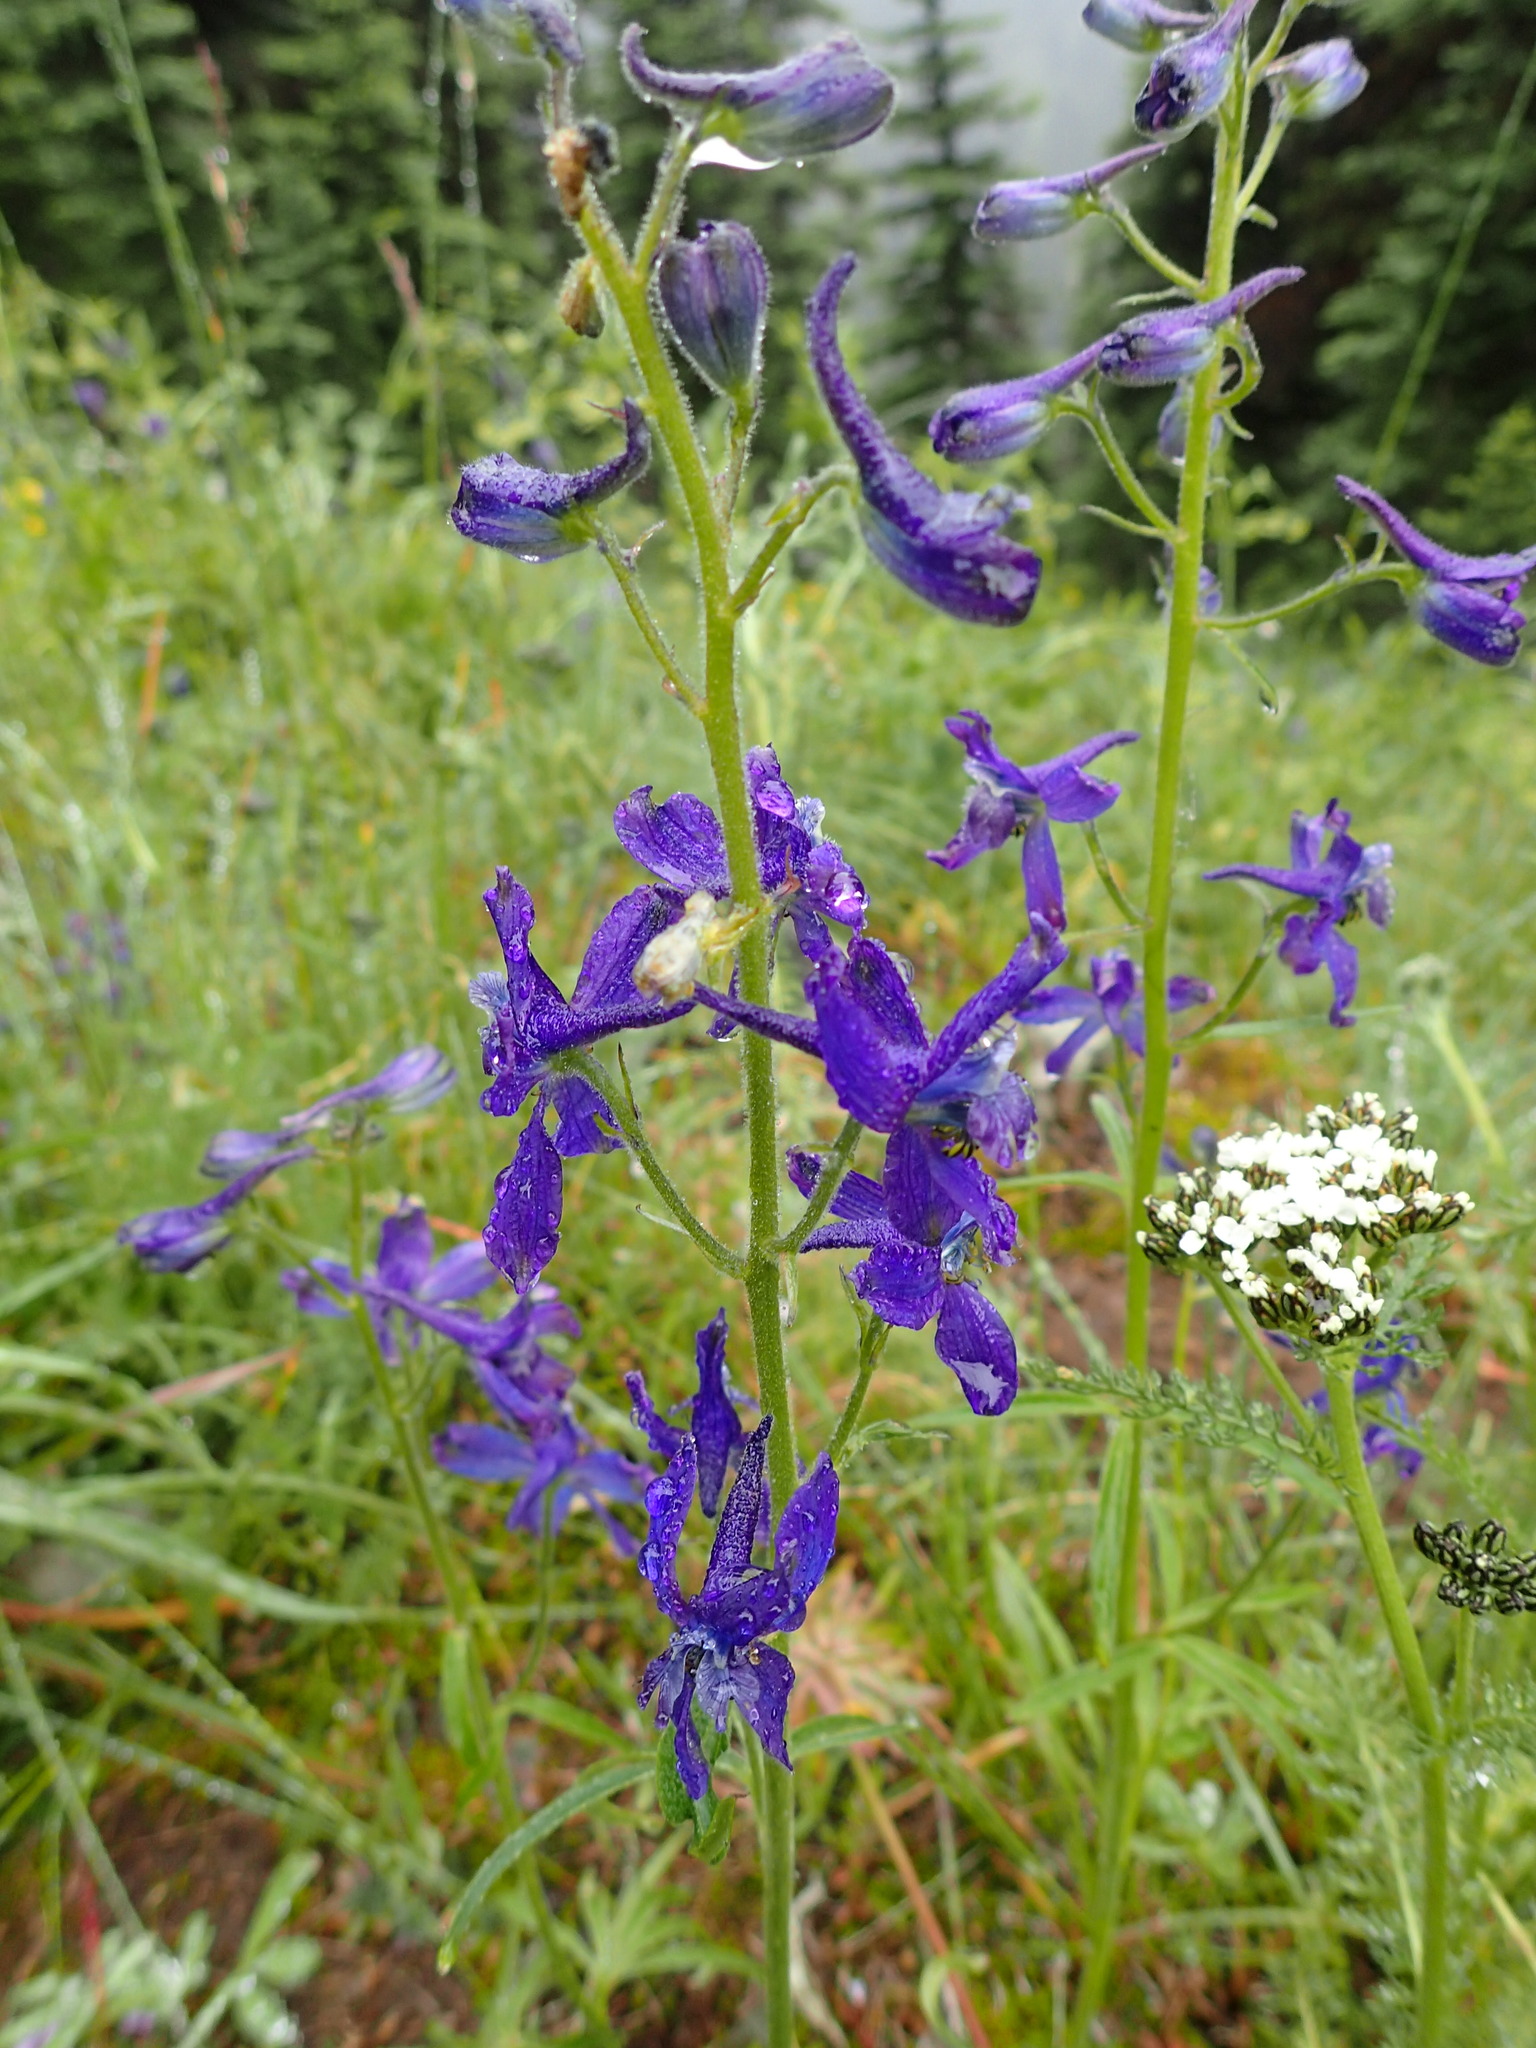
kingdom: Plantae
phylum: Tracheophyta
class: Magnoliopsida
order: Ranunculales
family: Ranunculaceae
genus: Delphinium
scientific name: Delphinium nuttallianum
